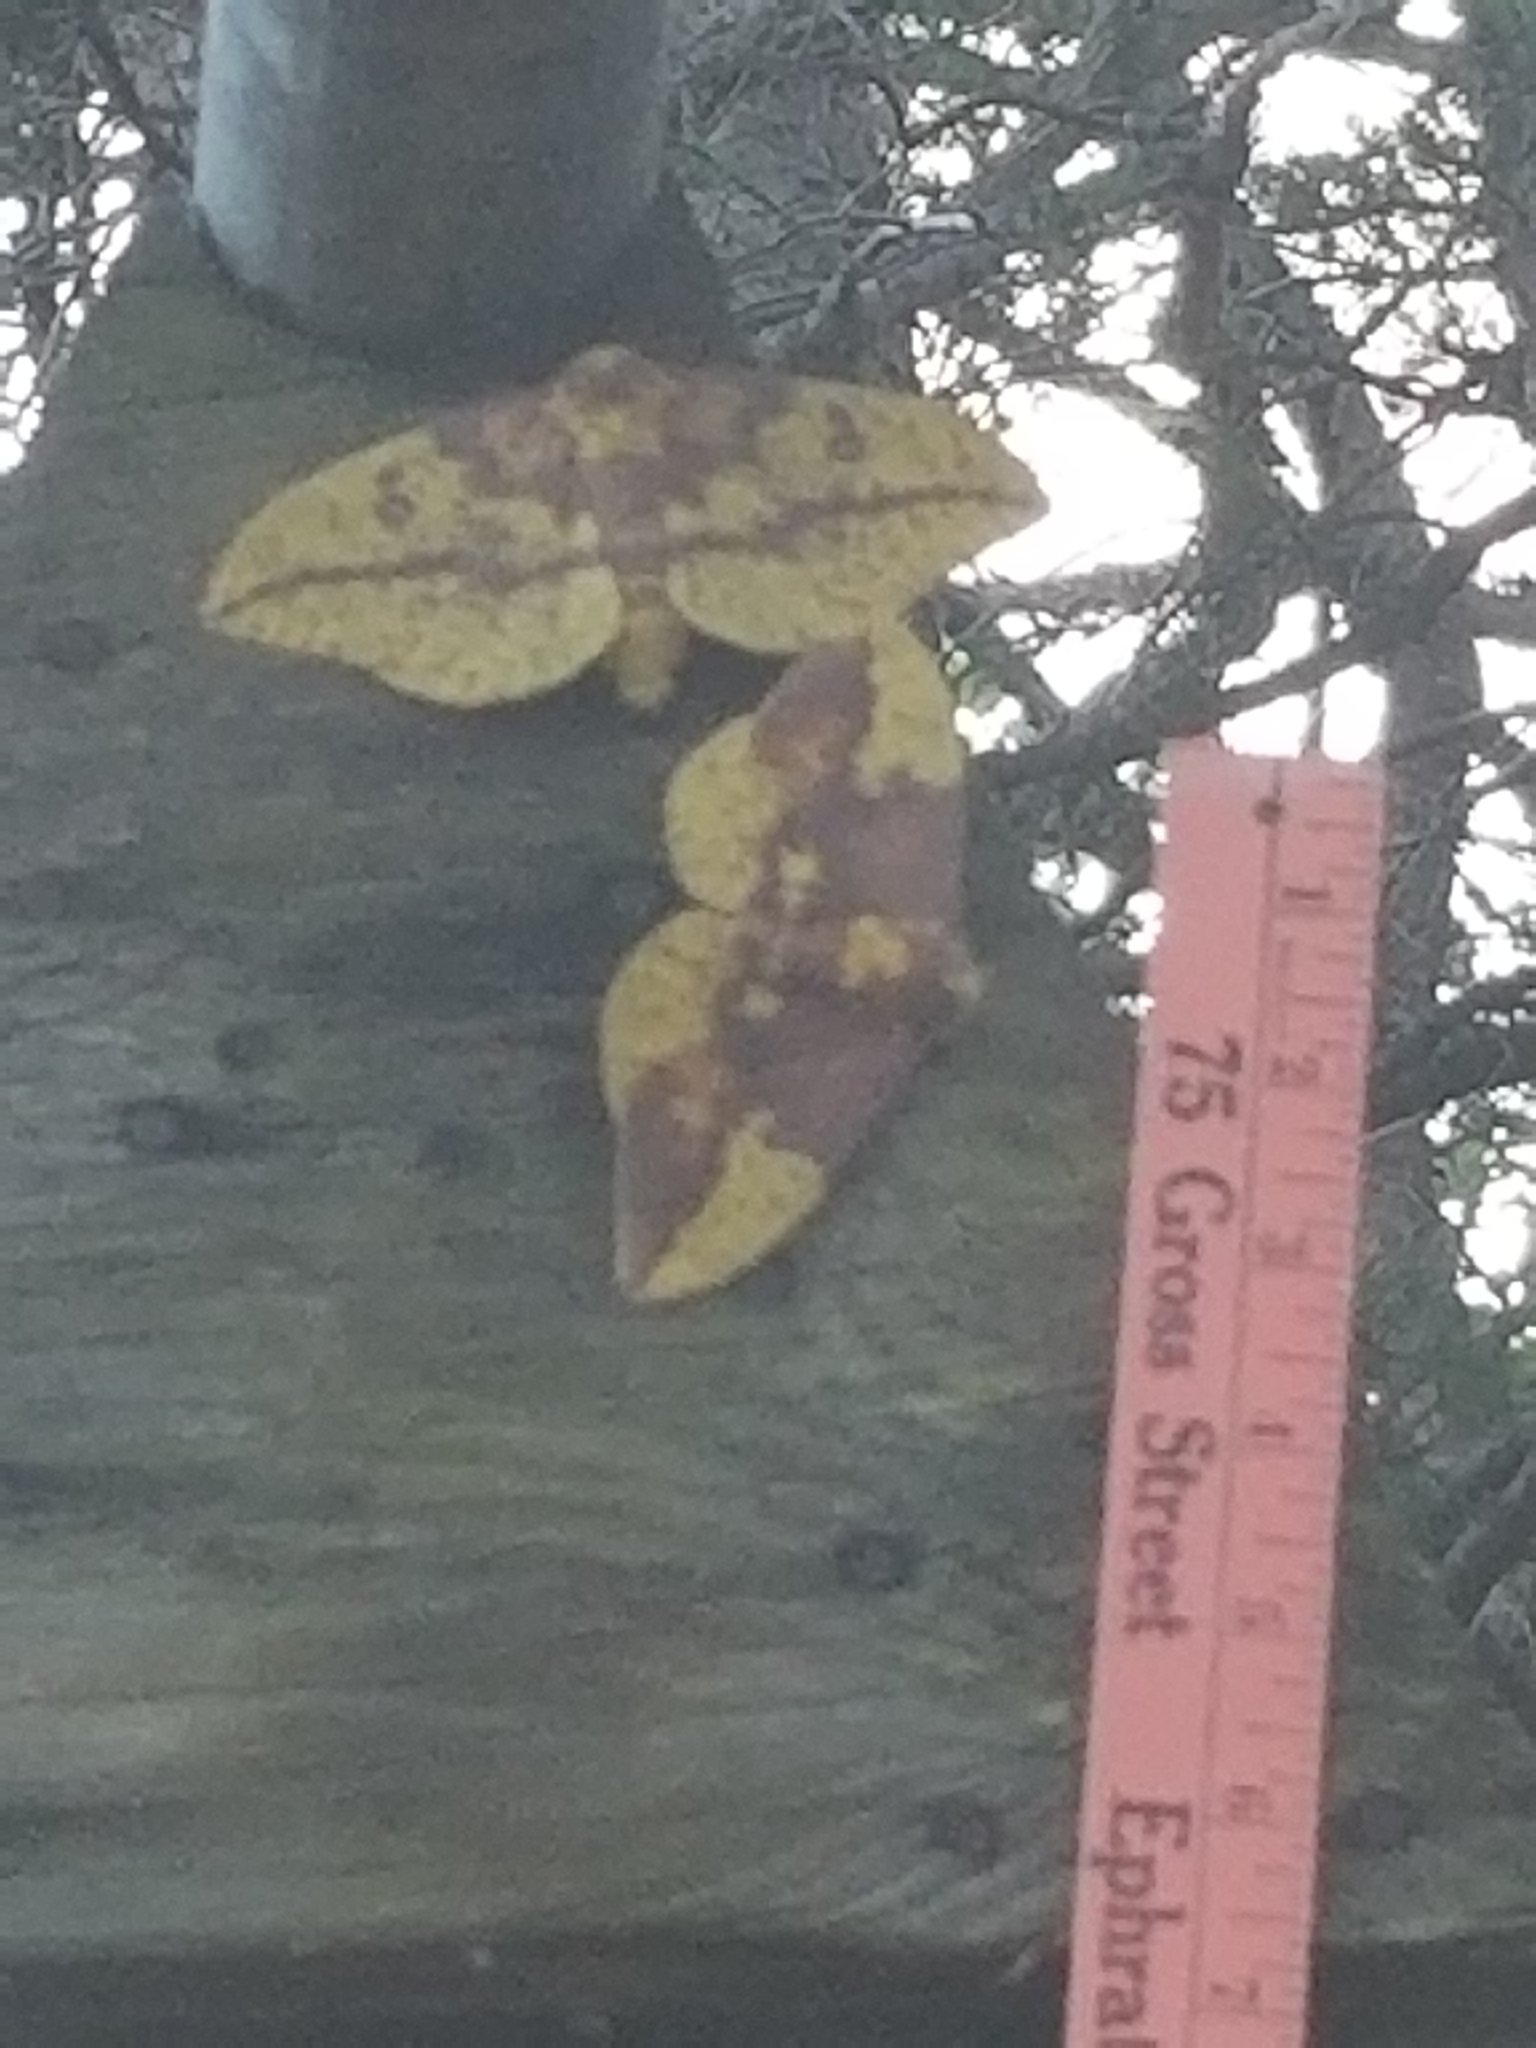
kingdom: Animalia
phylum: Arthropoda
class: Insecta
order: Lepidoptera
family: Saturniidae
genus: Eacles
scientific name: Eacles imperialis
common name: Imperial moth
